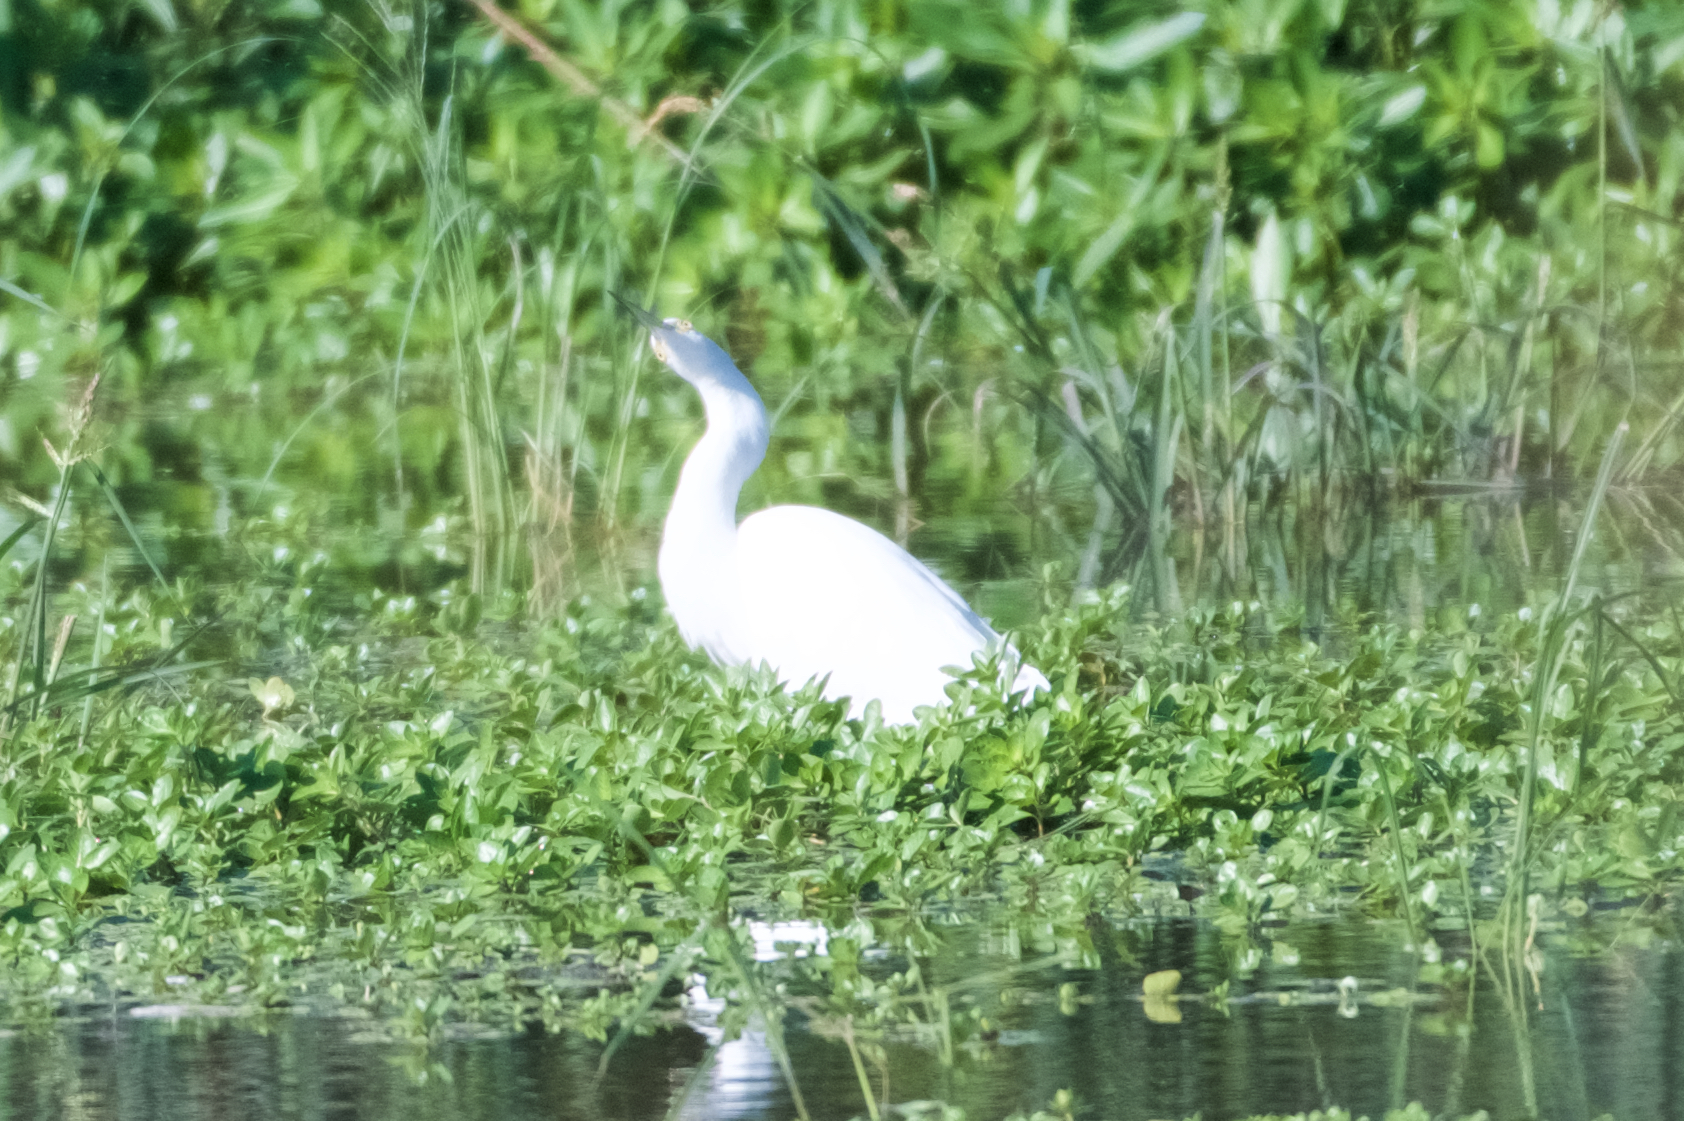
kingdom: Animalia
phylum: Chordata
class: Aves
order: Pelecaniformes
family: Ardeidae
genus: Ardea
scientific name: Ardea alba
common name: Great egret
